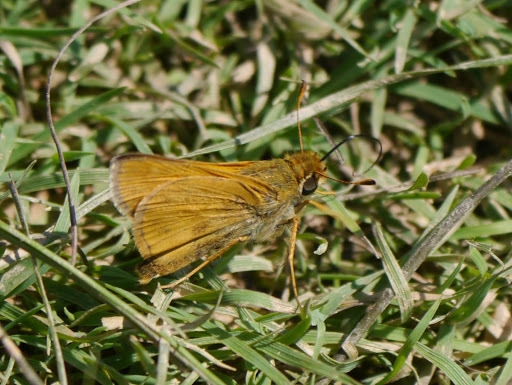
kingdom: Animalia
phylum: Arthropoda
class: Insecta
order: Lepidoptera
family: Hesperiidae
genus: Atalopedes
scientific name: Atalopedes
